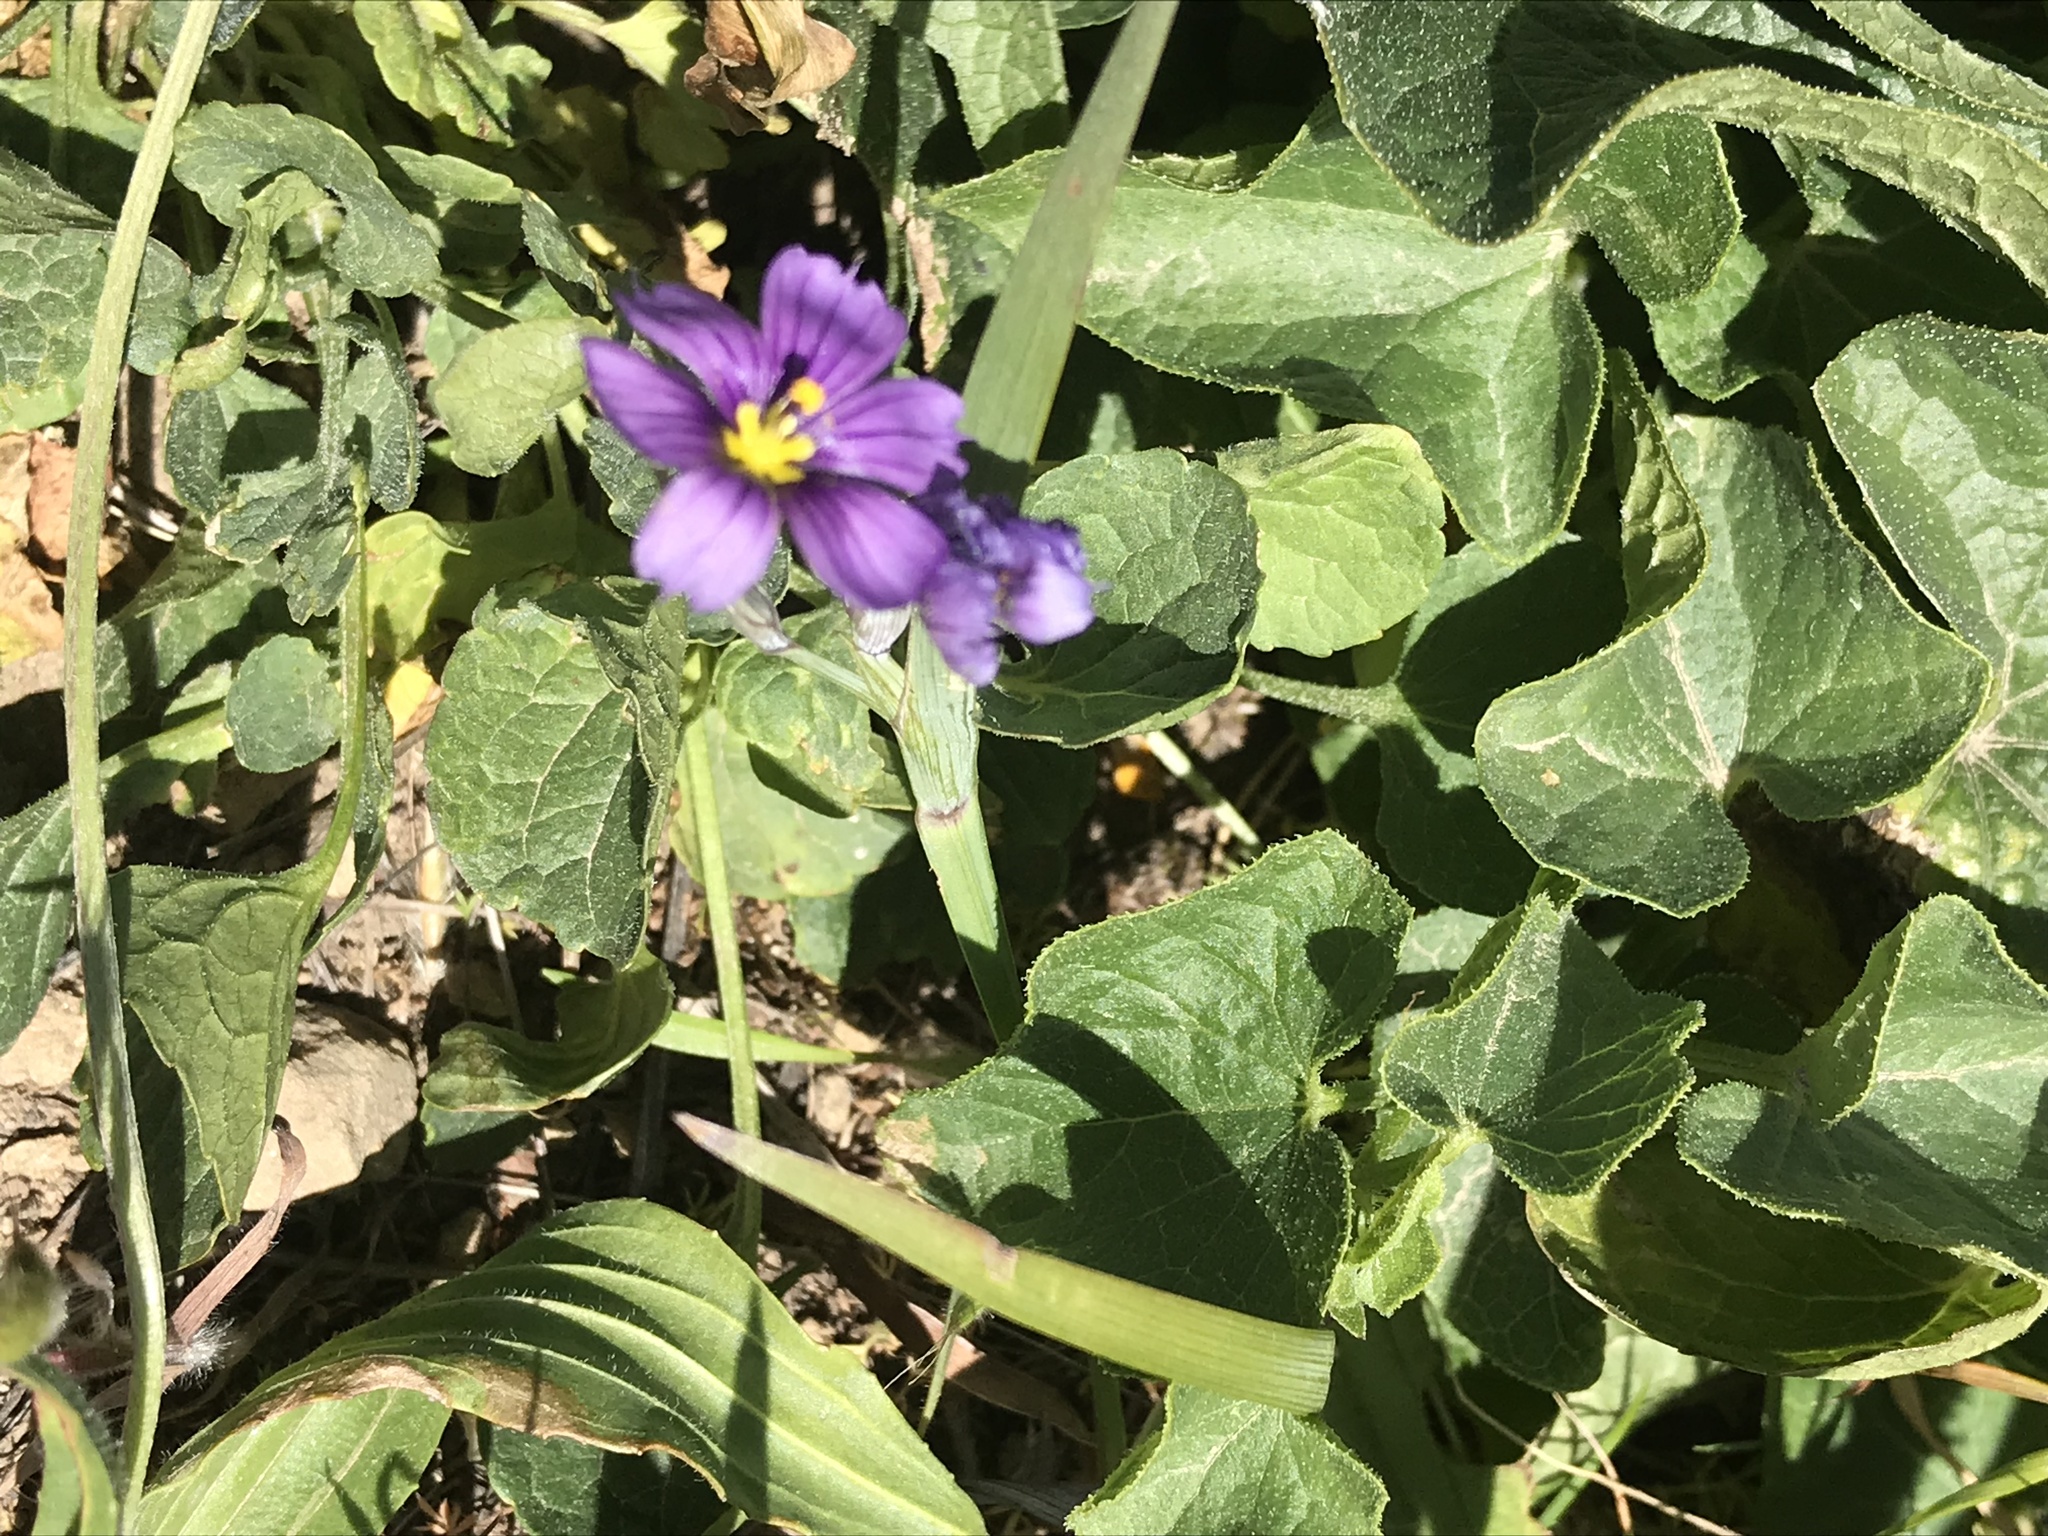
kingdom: Plantae
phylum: Tracheophyta
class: Liliopsida
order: Asparagales
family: Iridaceae
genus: Sisyrinchium
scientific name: Sisyrinchium bellum
